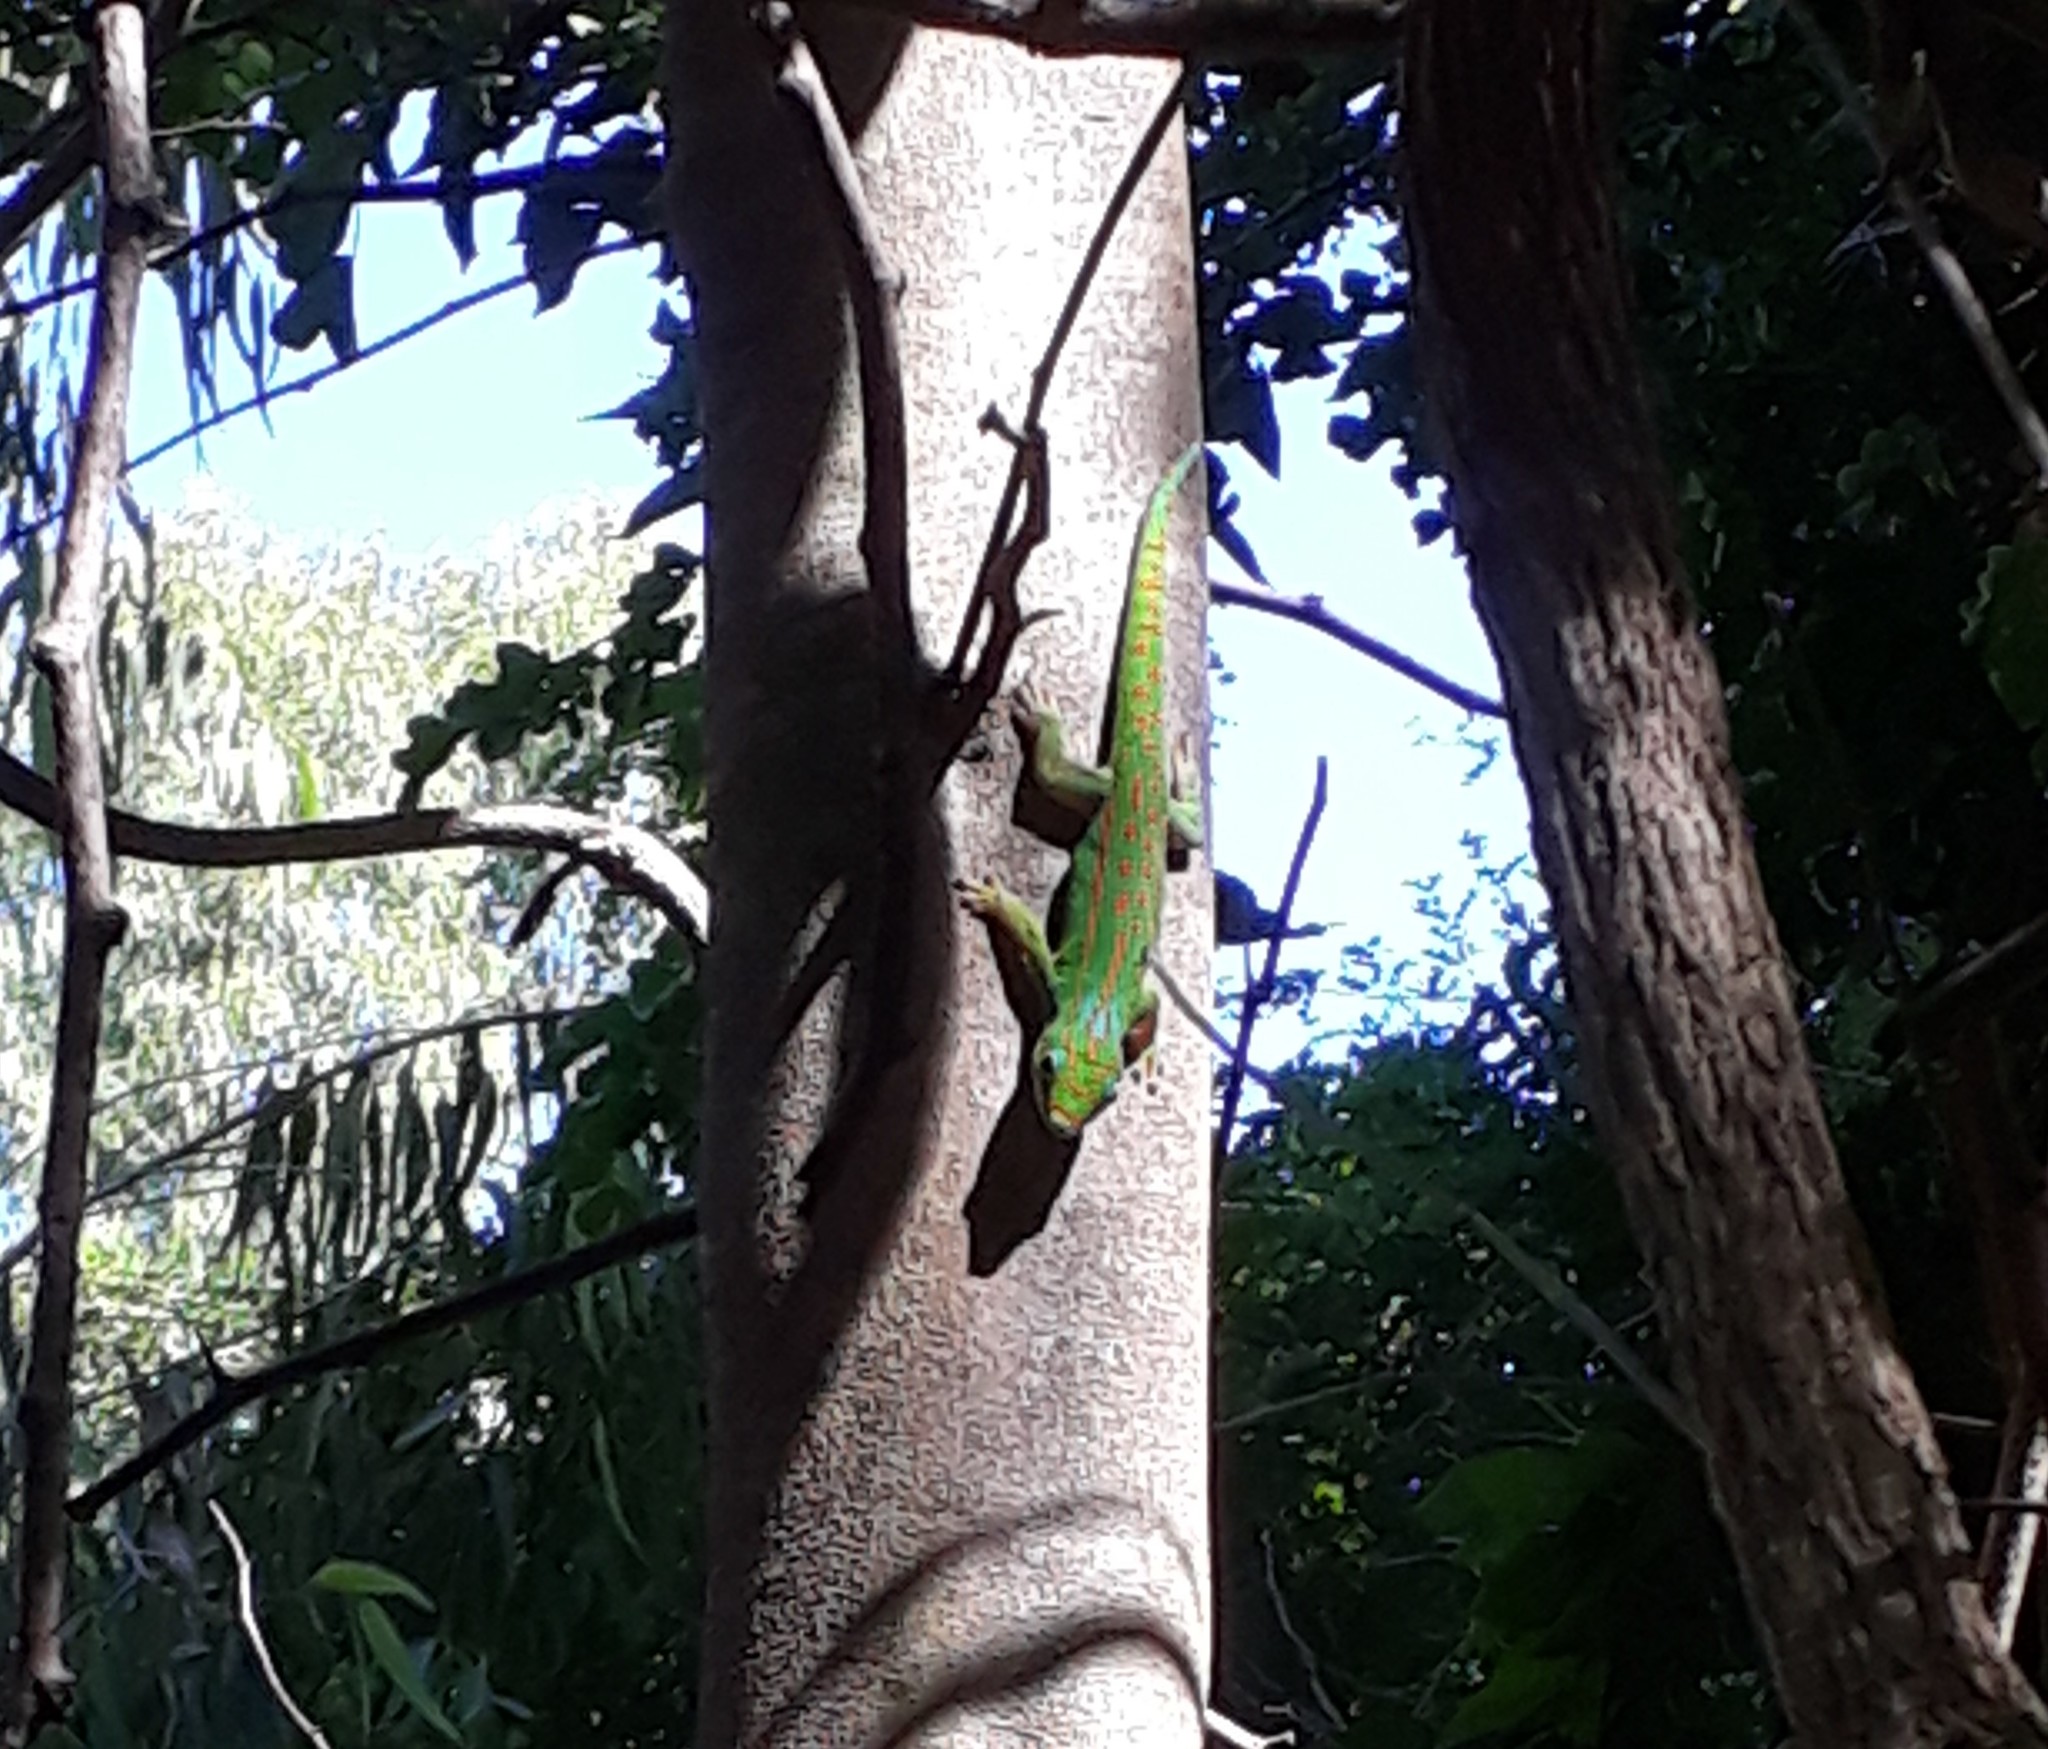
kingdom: Animalia
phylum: Chordata
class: Squamata
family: Gekkonidae
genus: Phelsuma
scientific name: Phelsuma guimbeaui
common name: Orange-spotted day gecko
